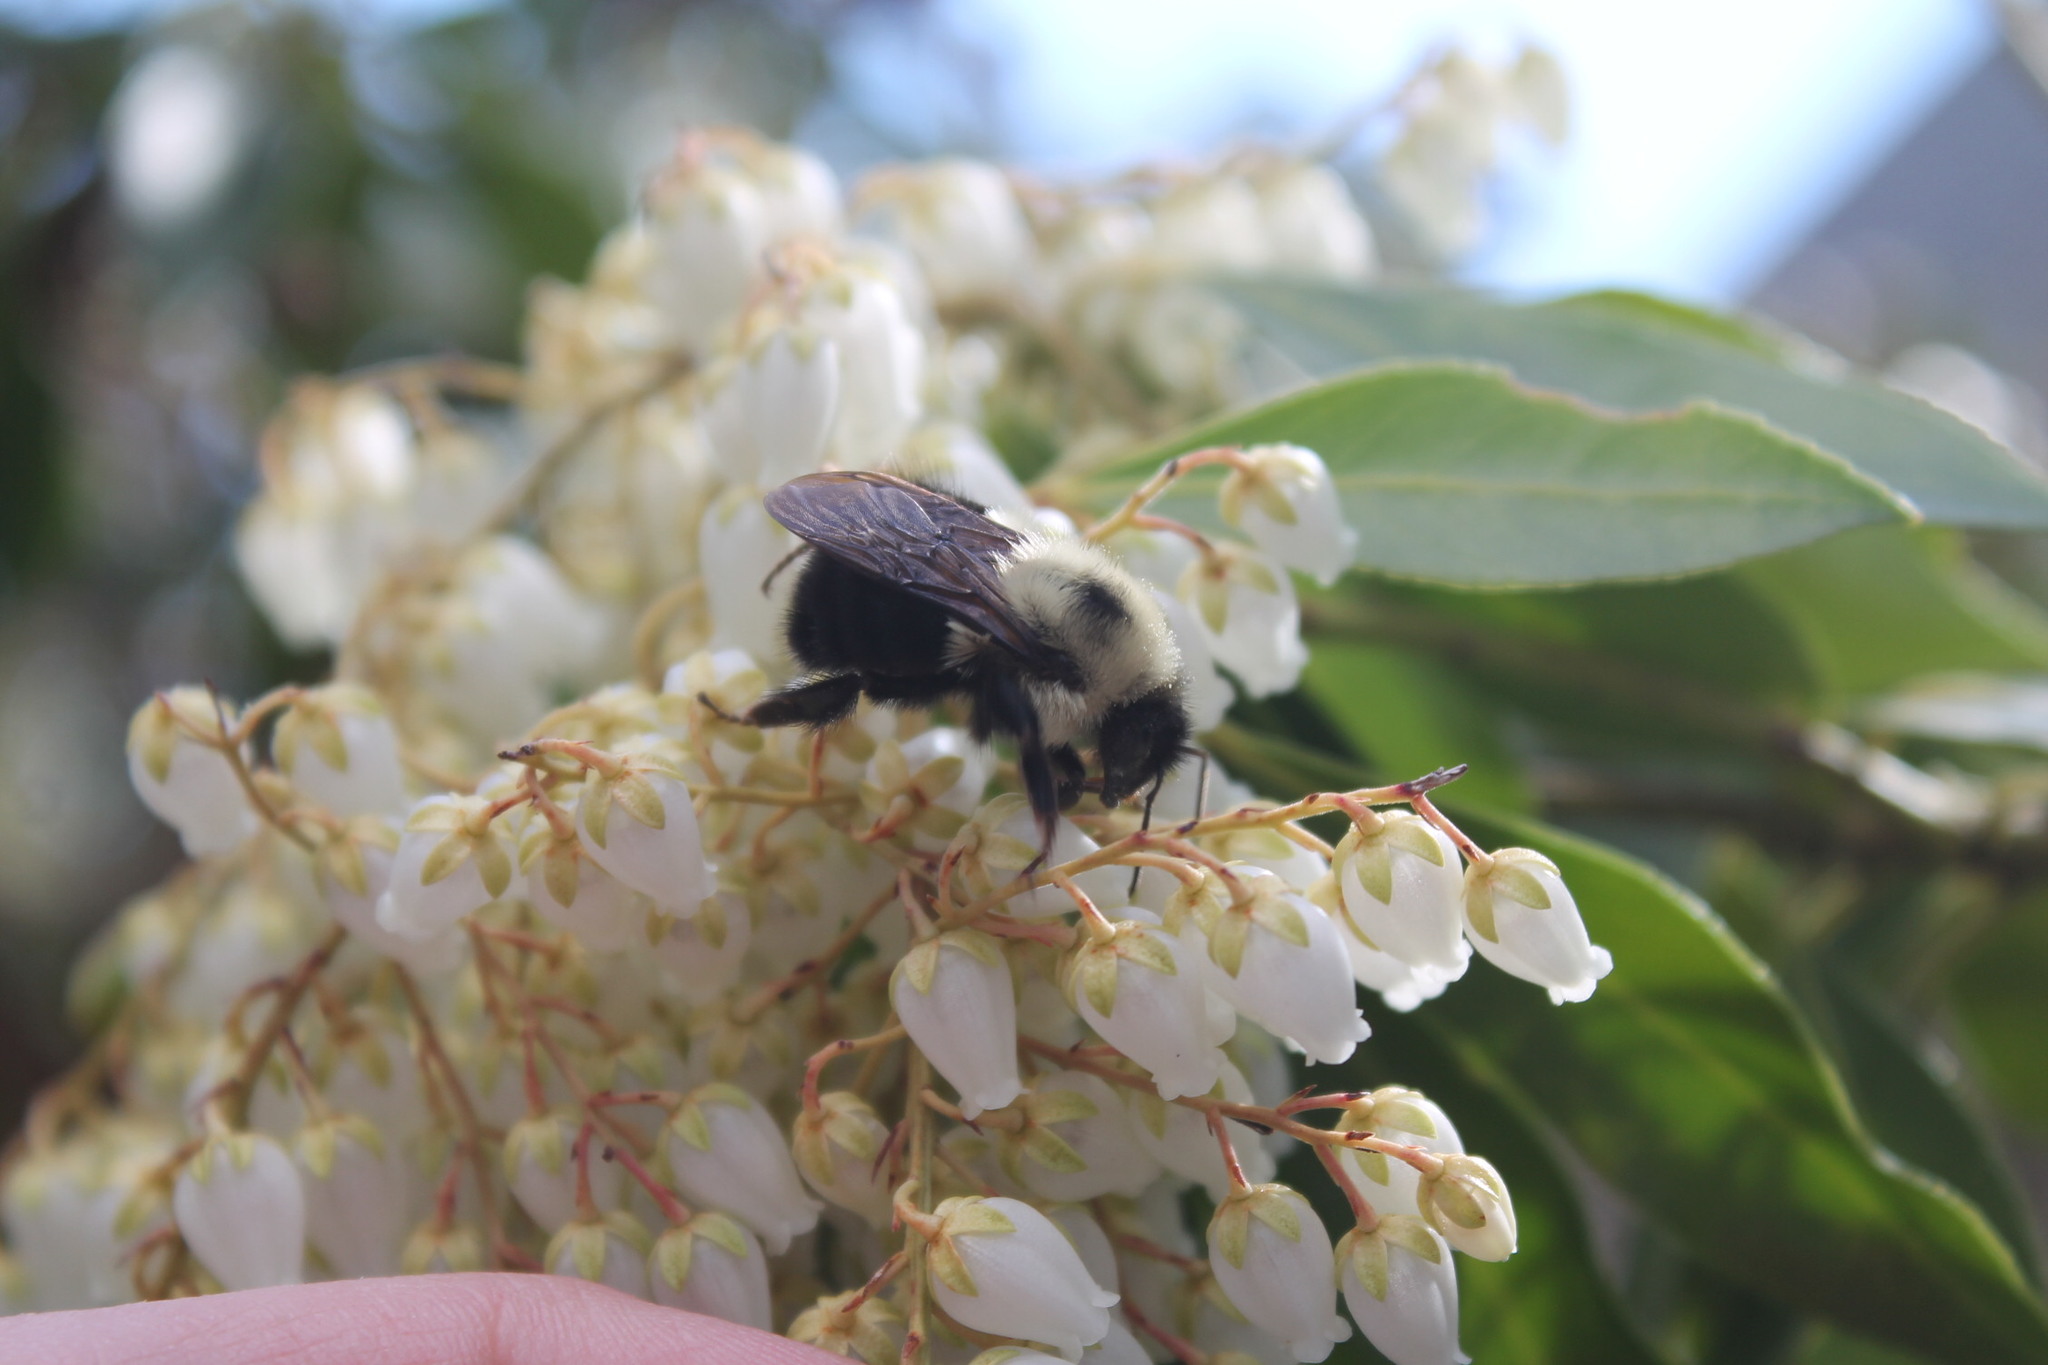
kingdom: Animalia
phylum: Arthropoda
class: Insecta
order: Hymenoptera
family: Apidae
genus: Bombus
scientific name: Bombus bimaculatus
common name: Two-spotted bumble bee
